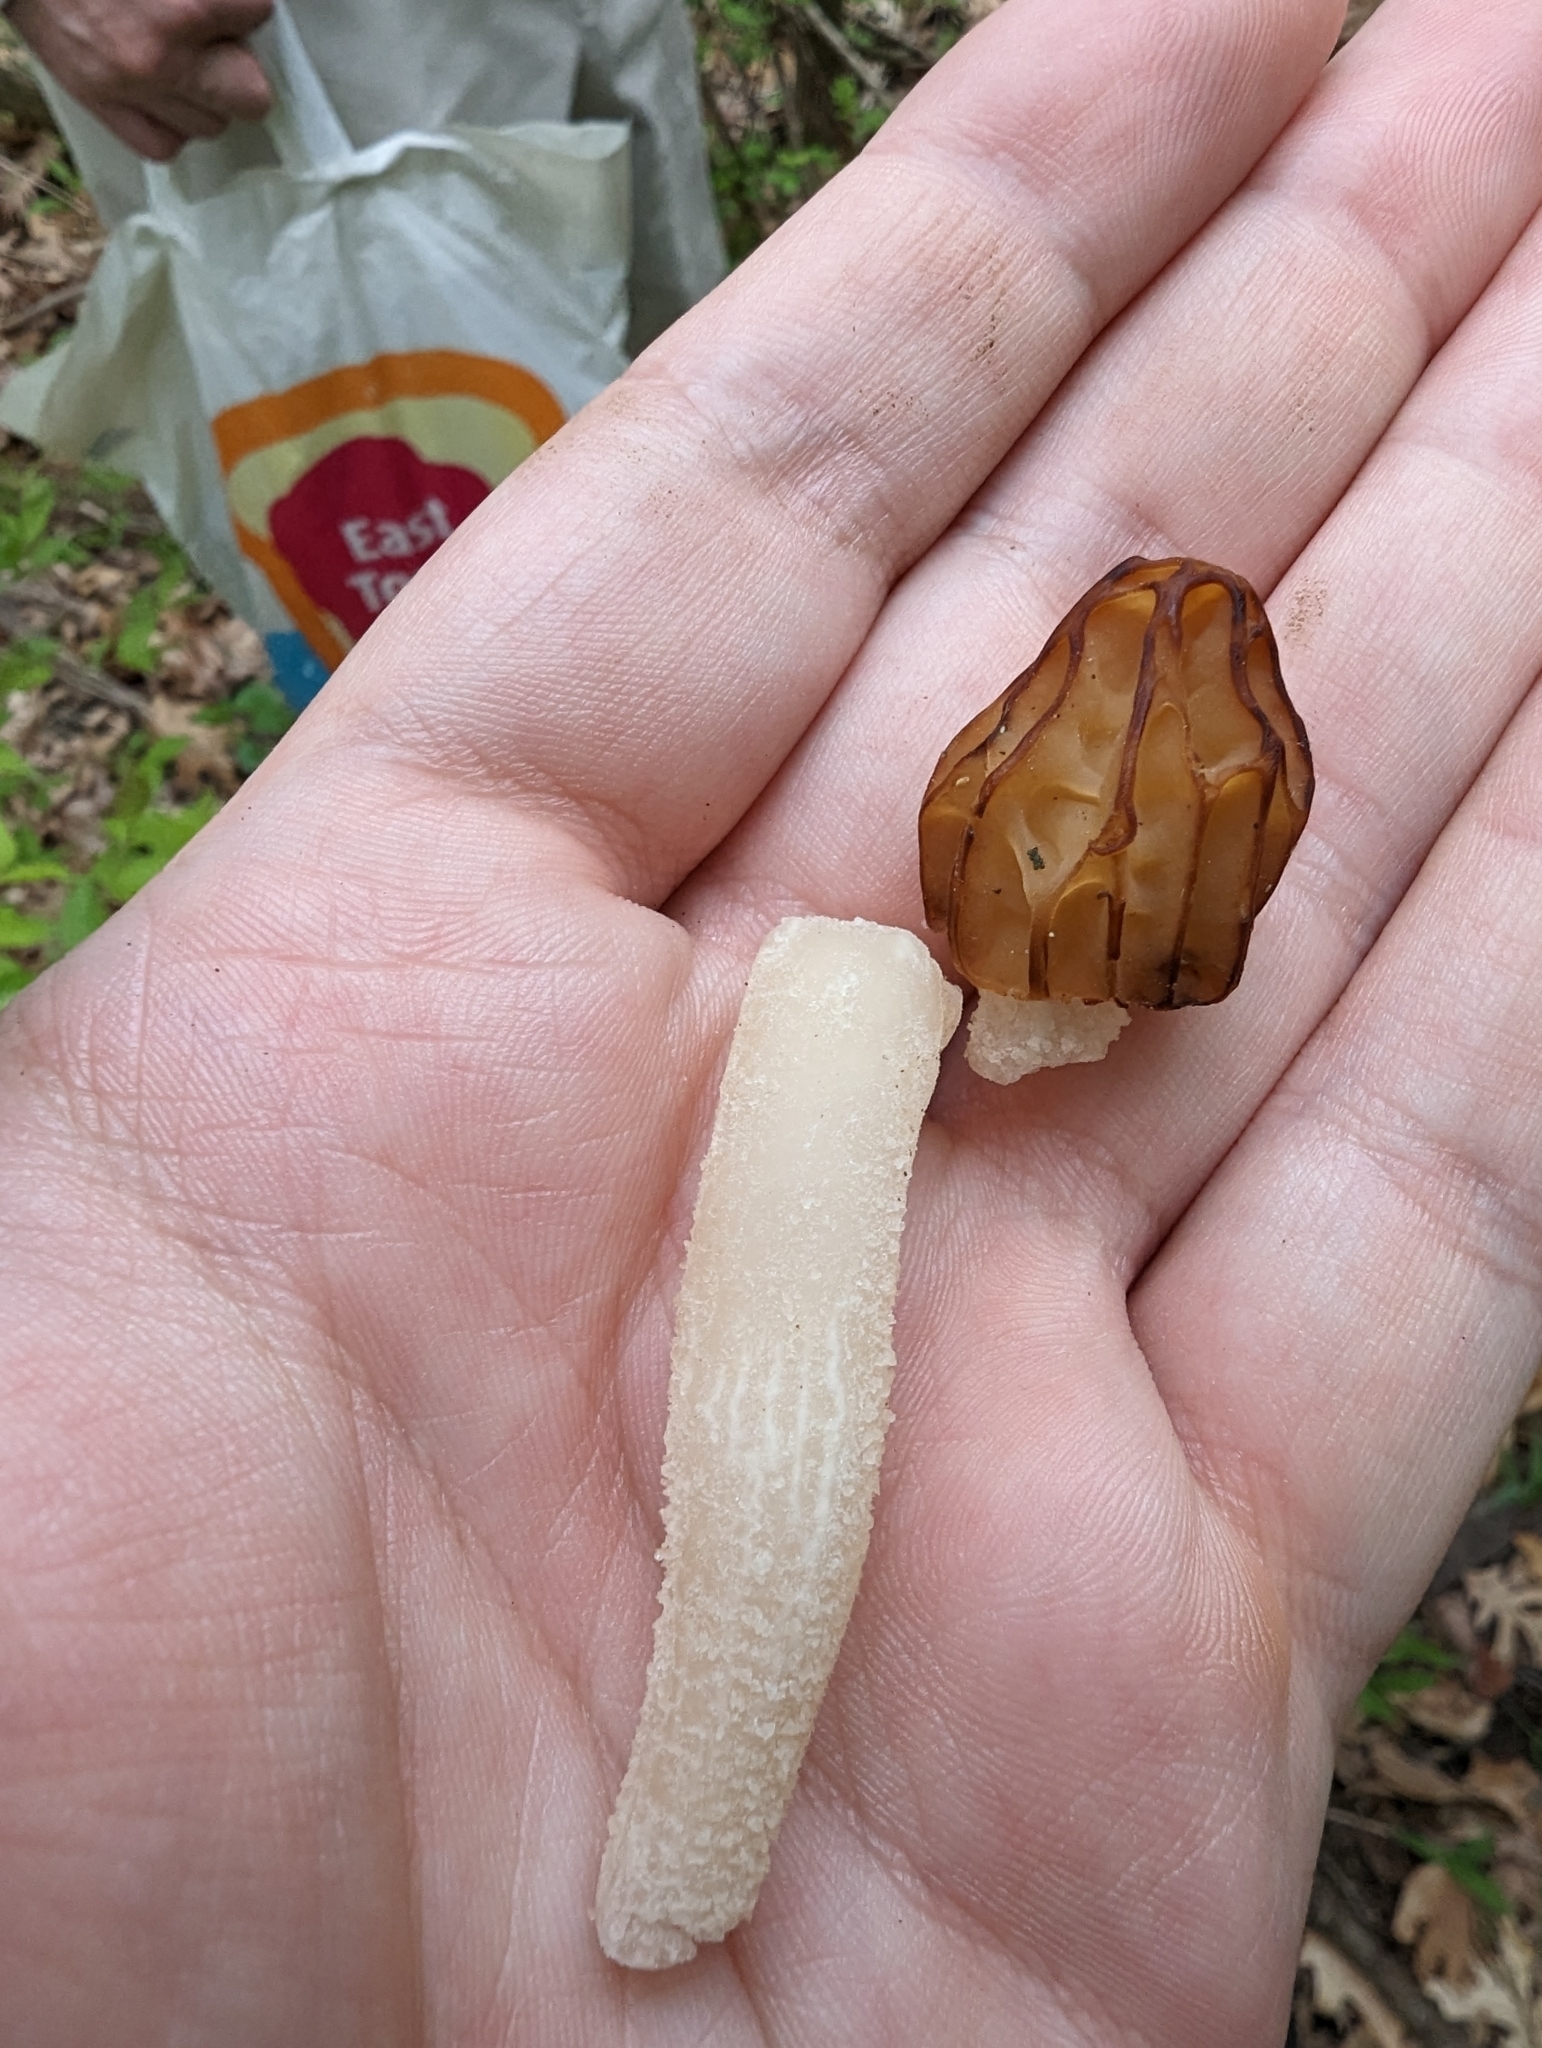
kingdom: Fungi
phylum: Ascomycota
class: Pezizomycetes
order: Pezizales
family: Morchellaceae
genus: Morchella
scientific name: Morchella punctipes
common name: Half-free morel
